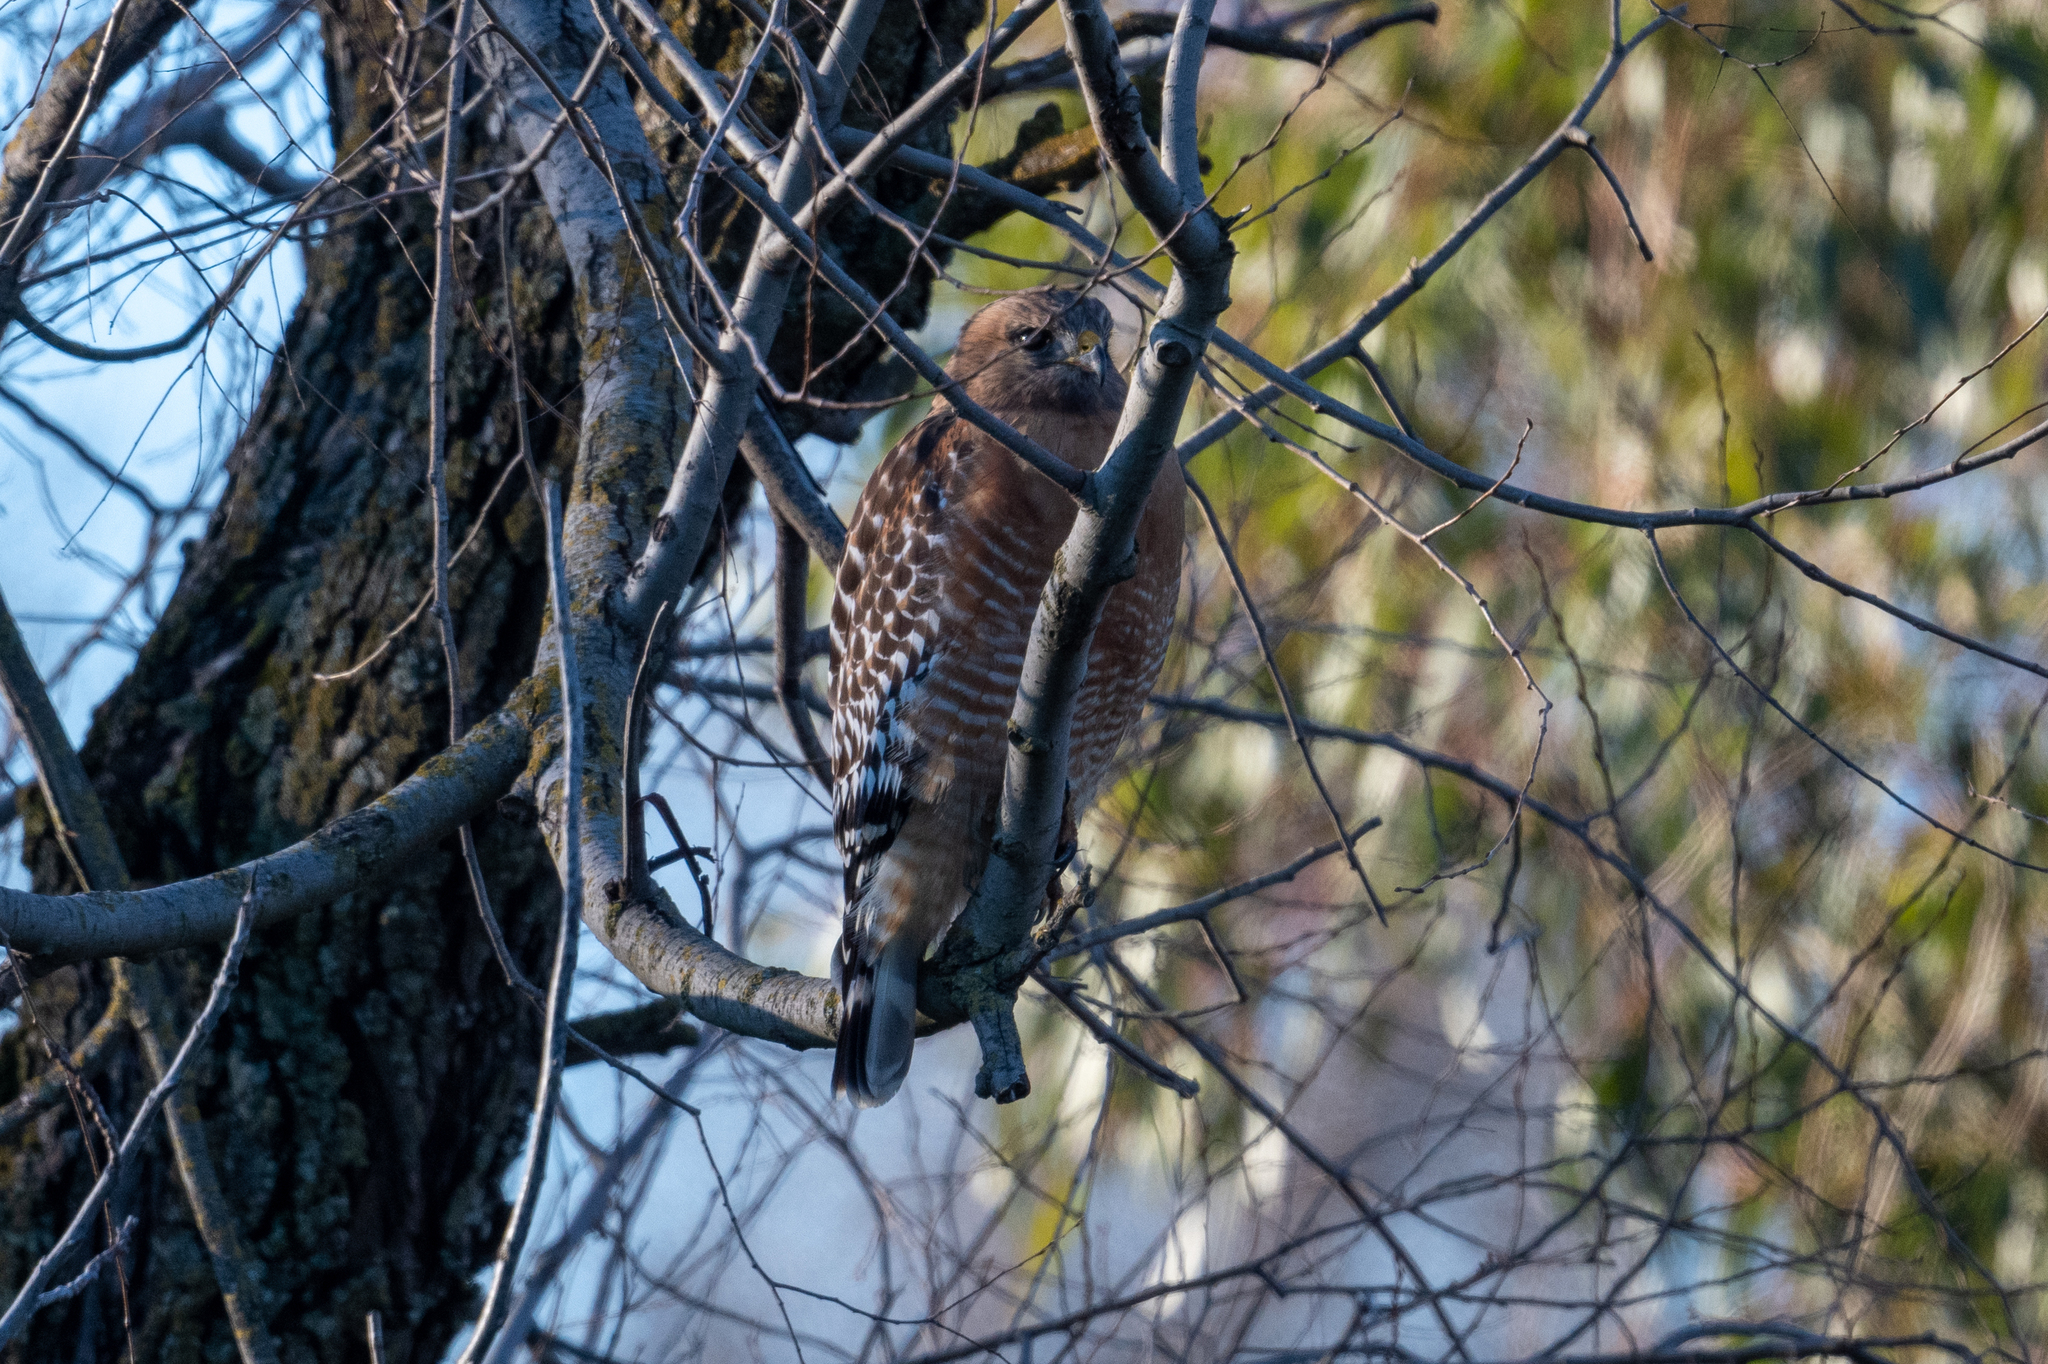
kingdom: Animalia
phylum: Chordata
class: Aves
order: Accipitriformes
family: Accipitridae
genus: Buteo
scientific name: Buteo lineatus
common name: Red-shouldered hawk
